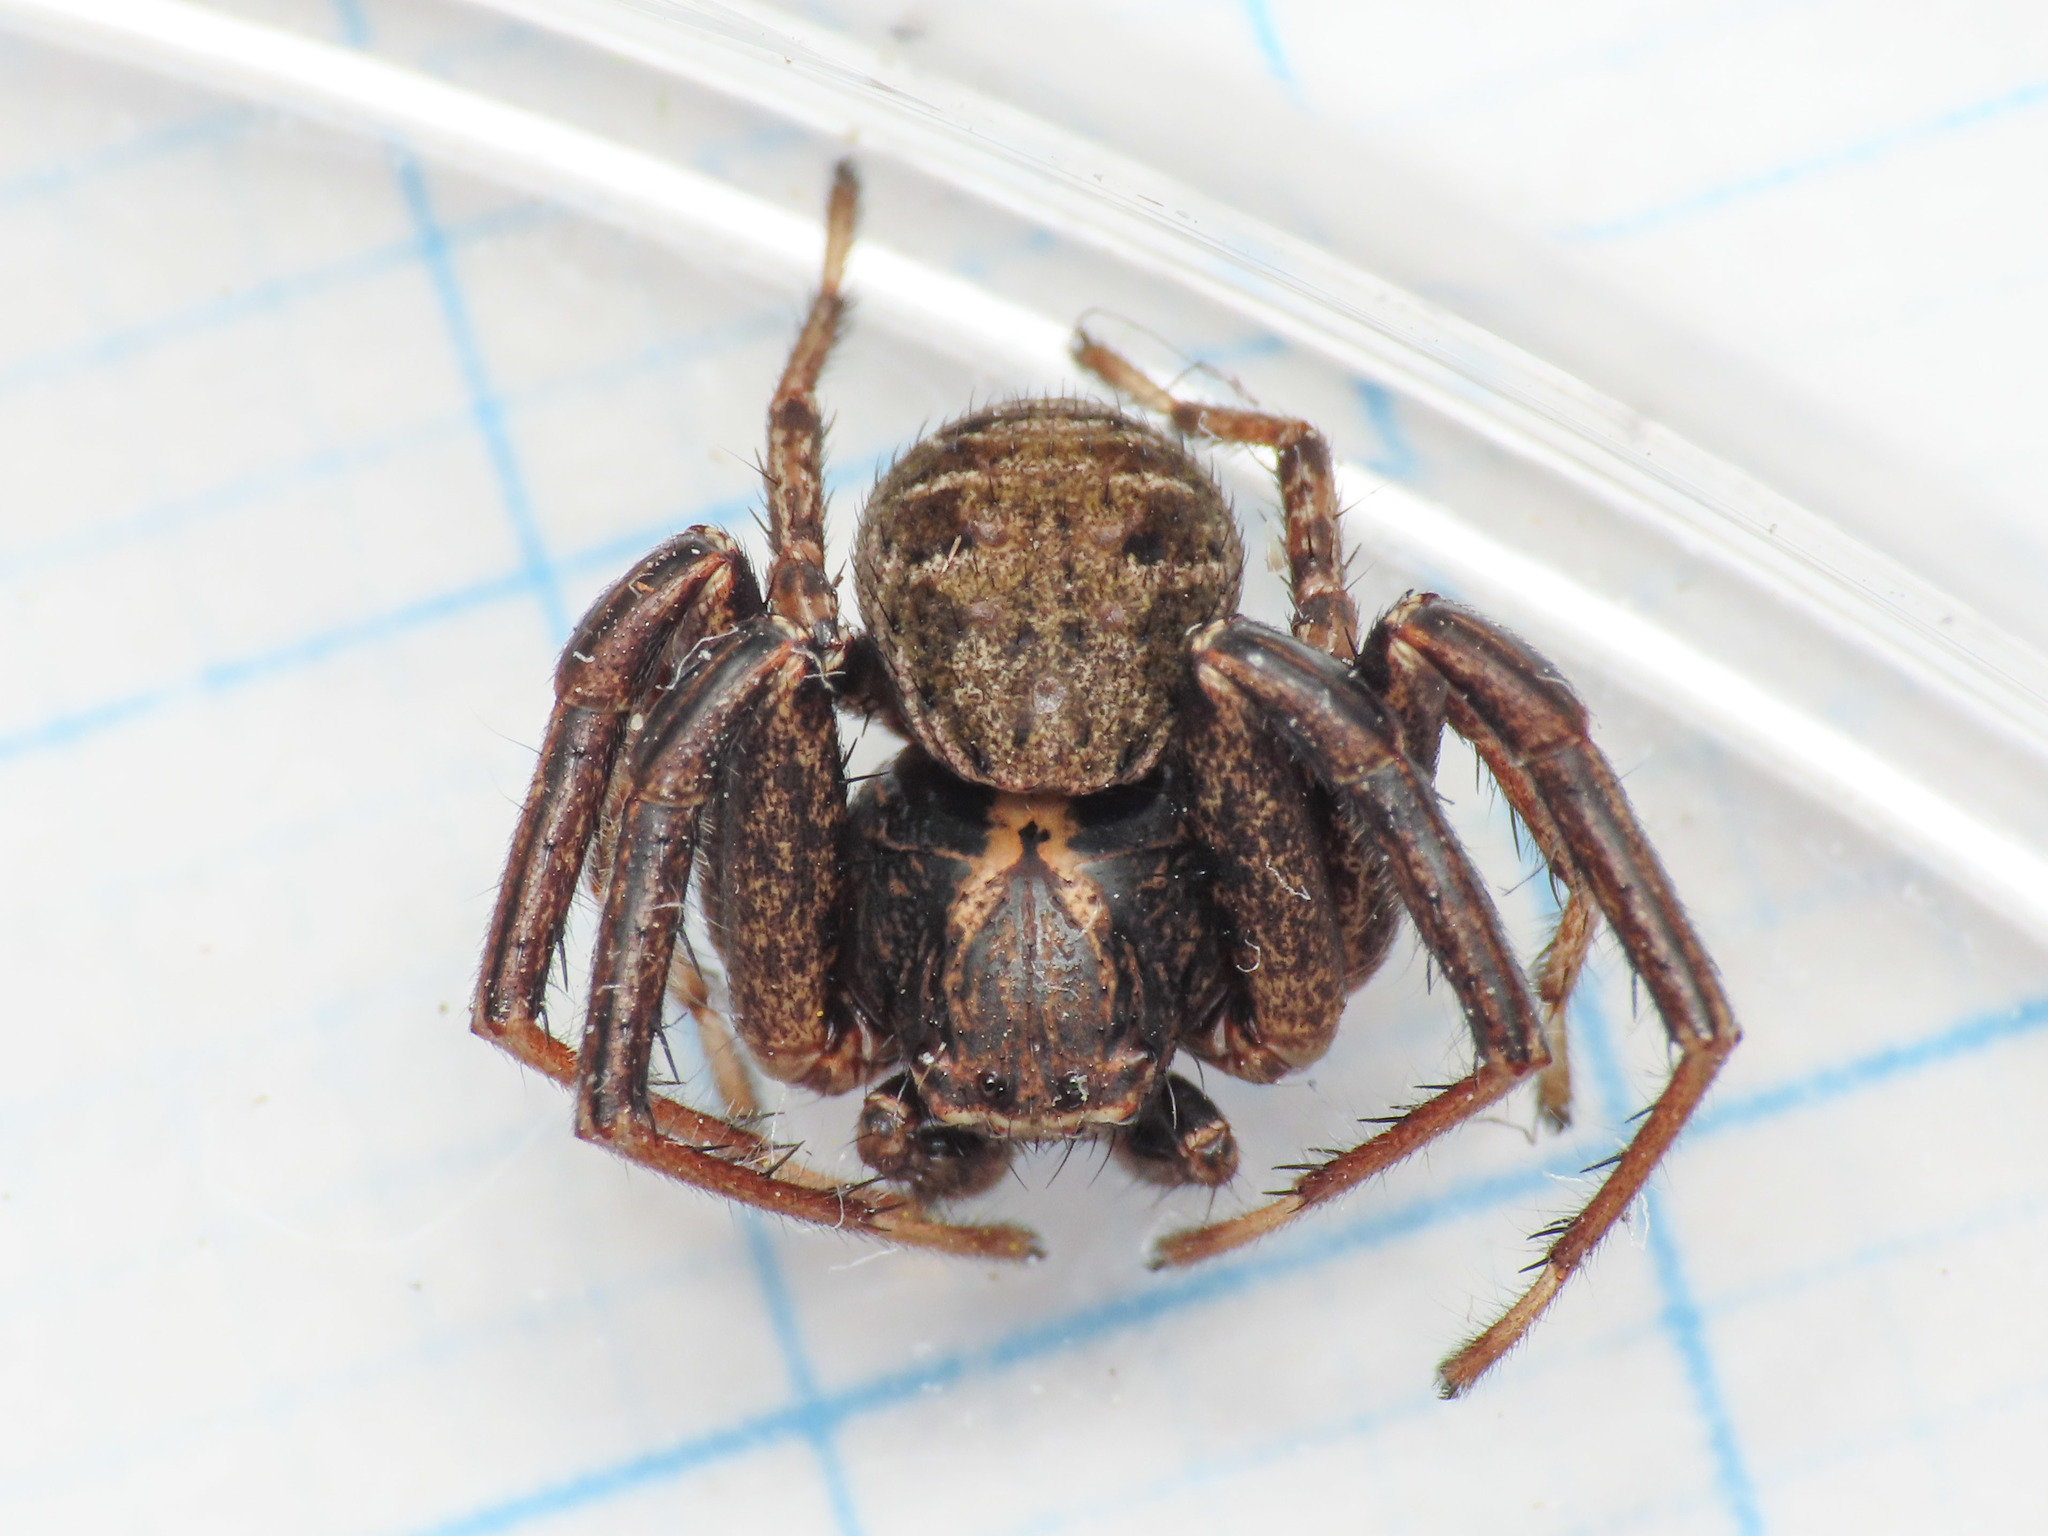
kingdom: Animalia
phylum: Arthropoda
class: Arachnida
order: Araneae
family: Thomisidae
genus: Xysticus
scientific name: Xysticus acerbus
